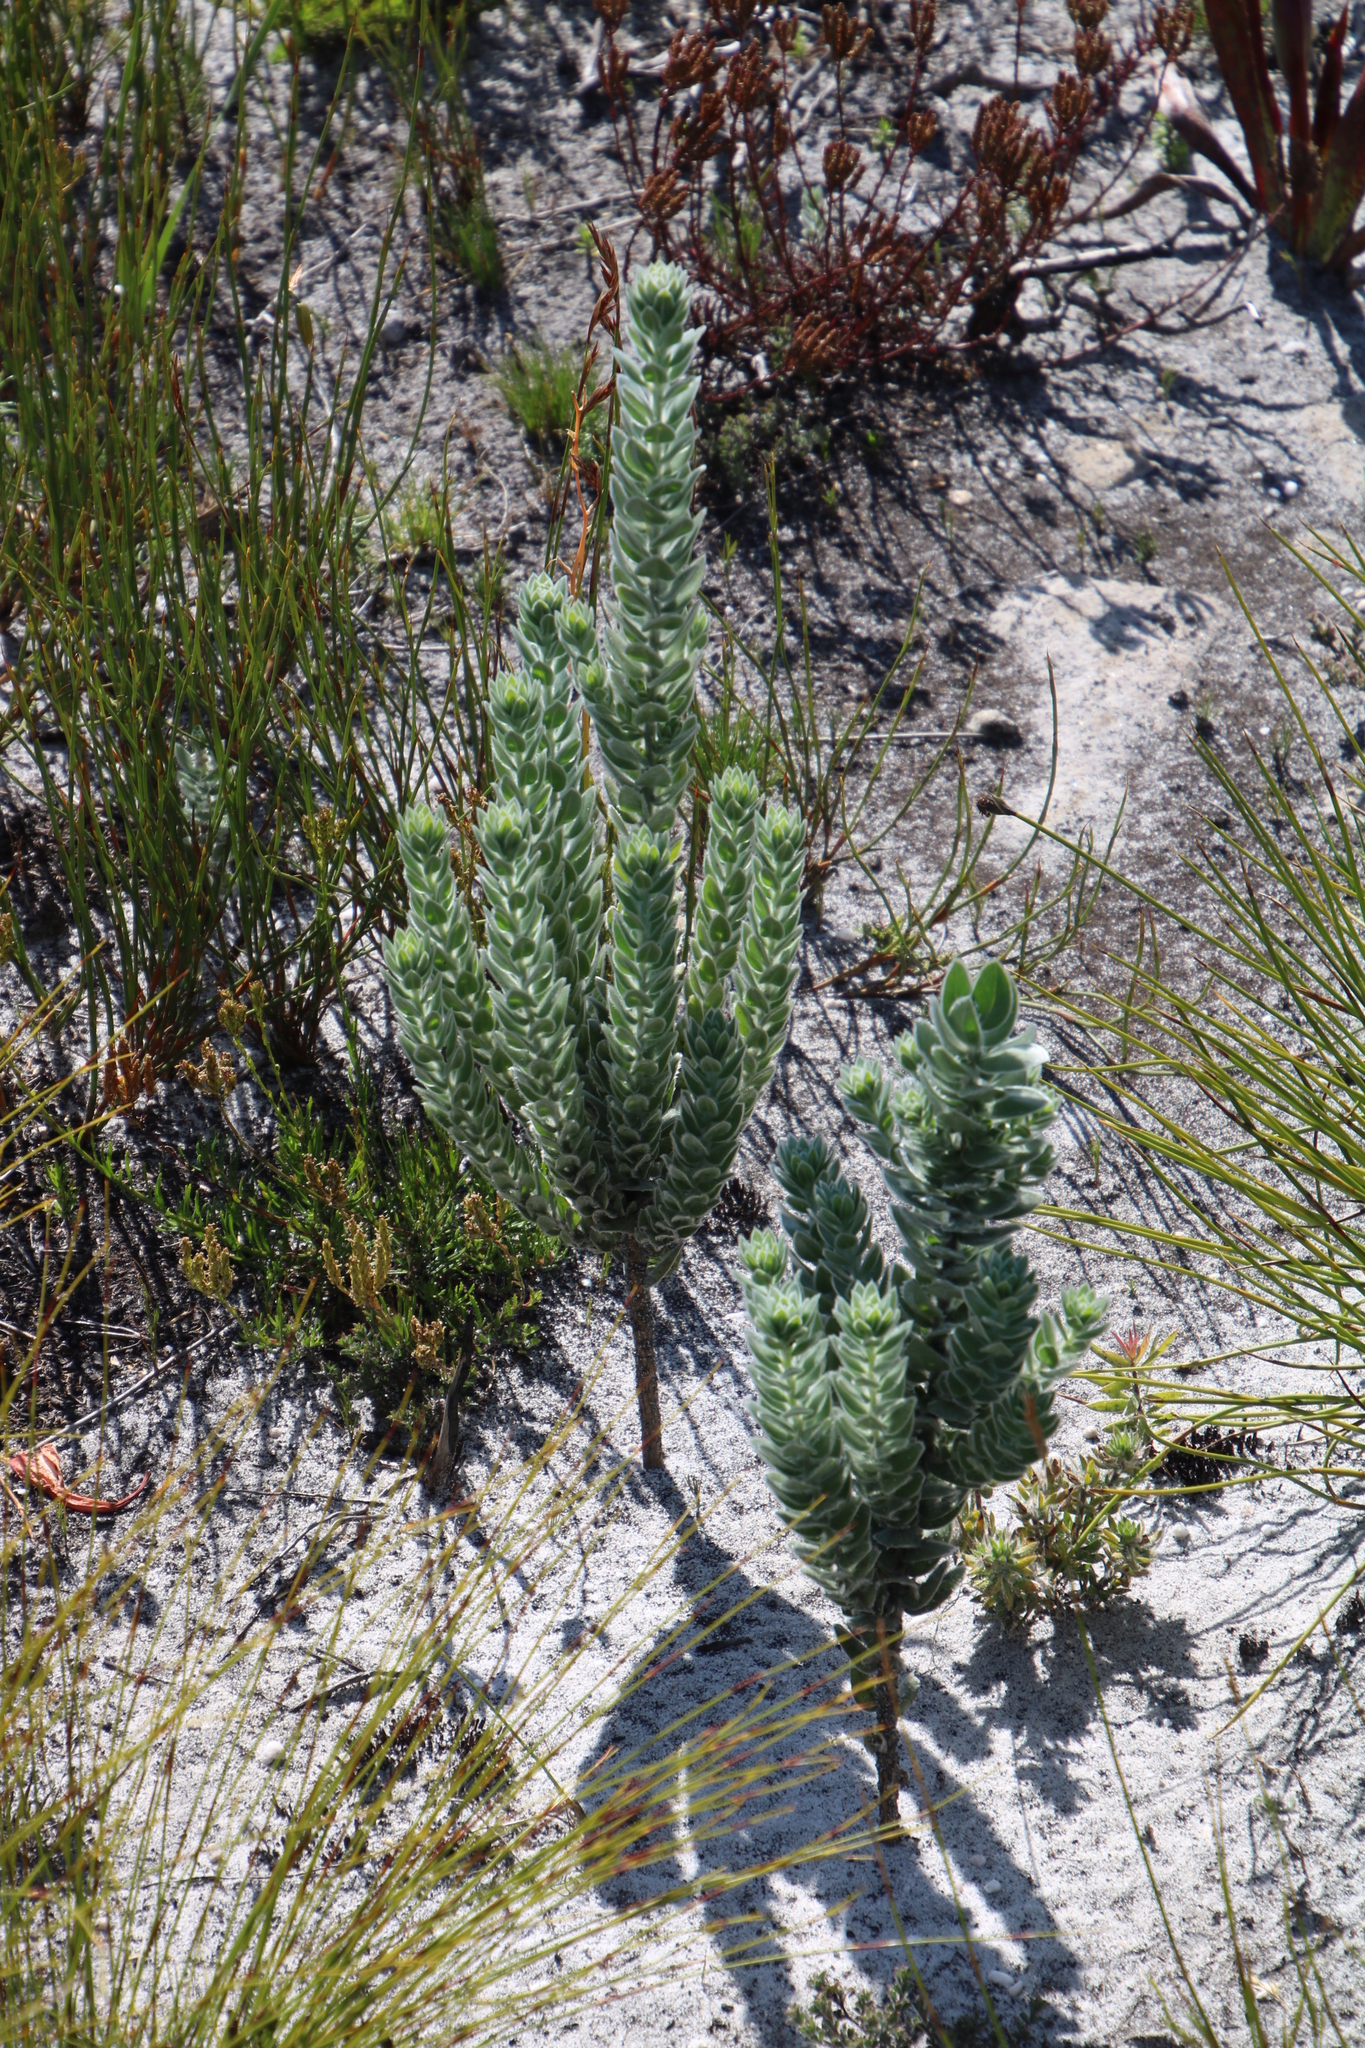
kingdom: Plantae
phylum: Tracheophyta
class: Magnoliopsida
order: Fabales
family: Fabaceae
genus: Xiphotheca
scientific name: Xiphotheca fruticosa
